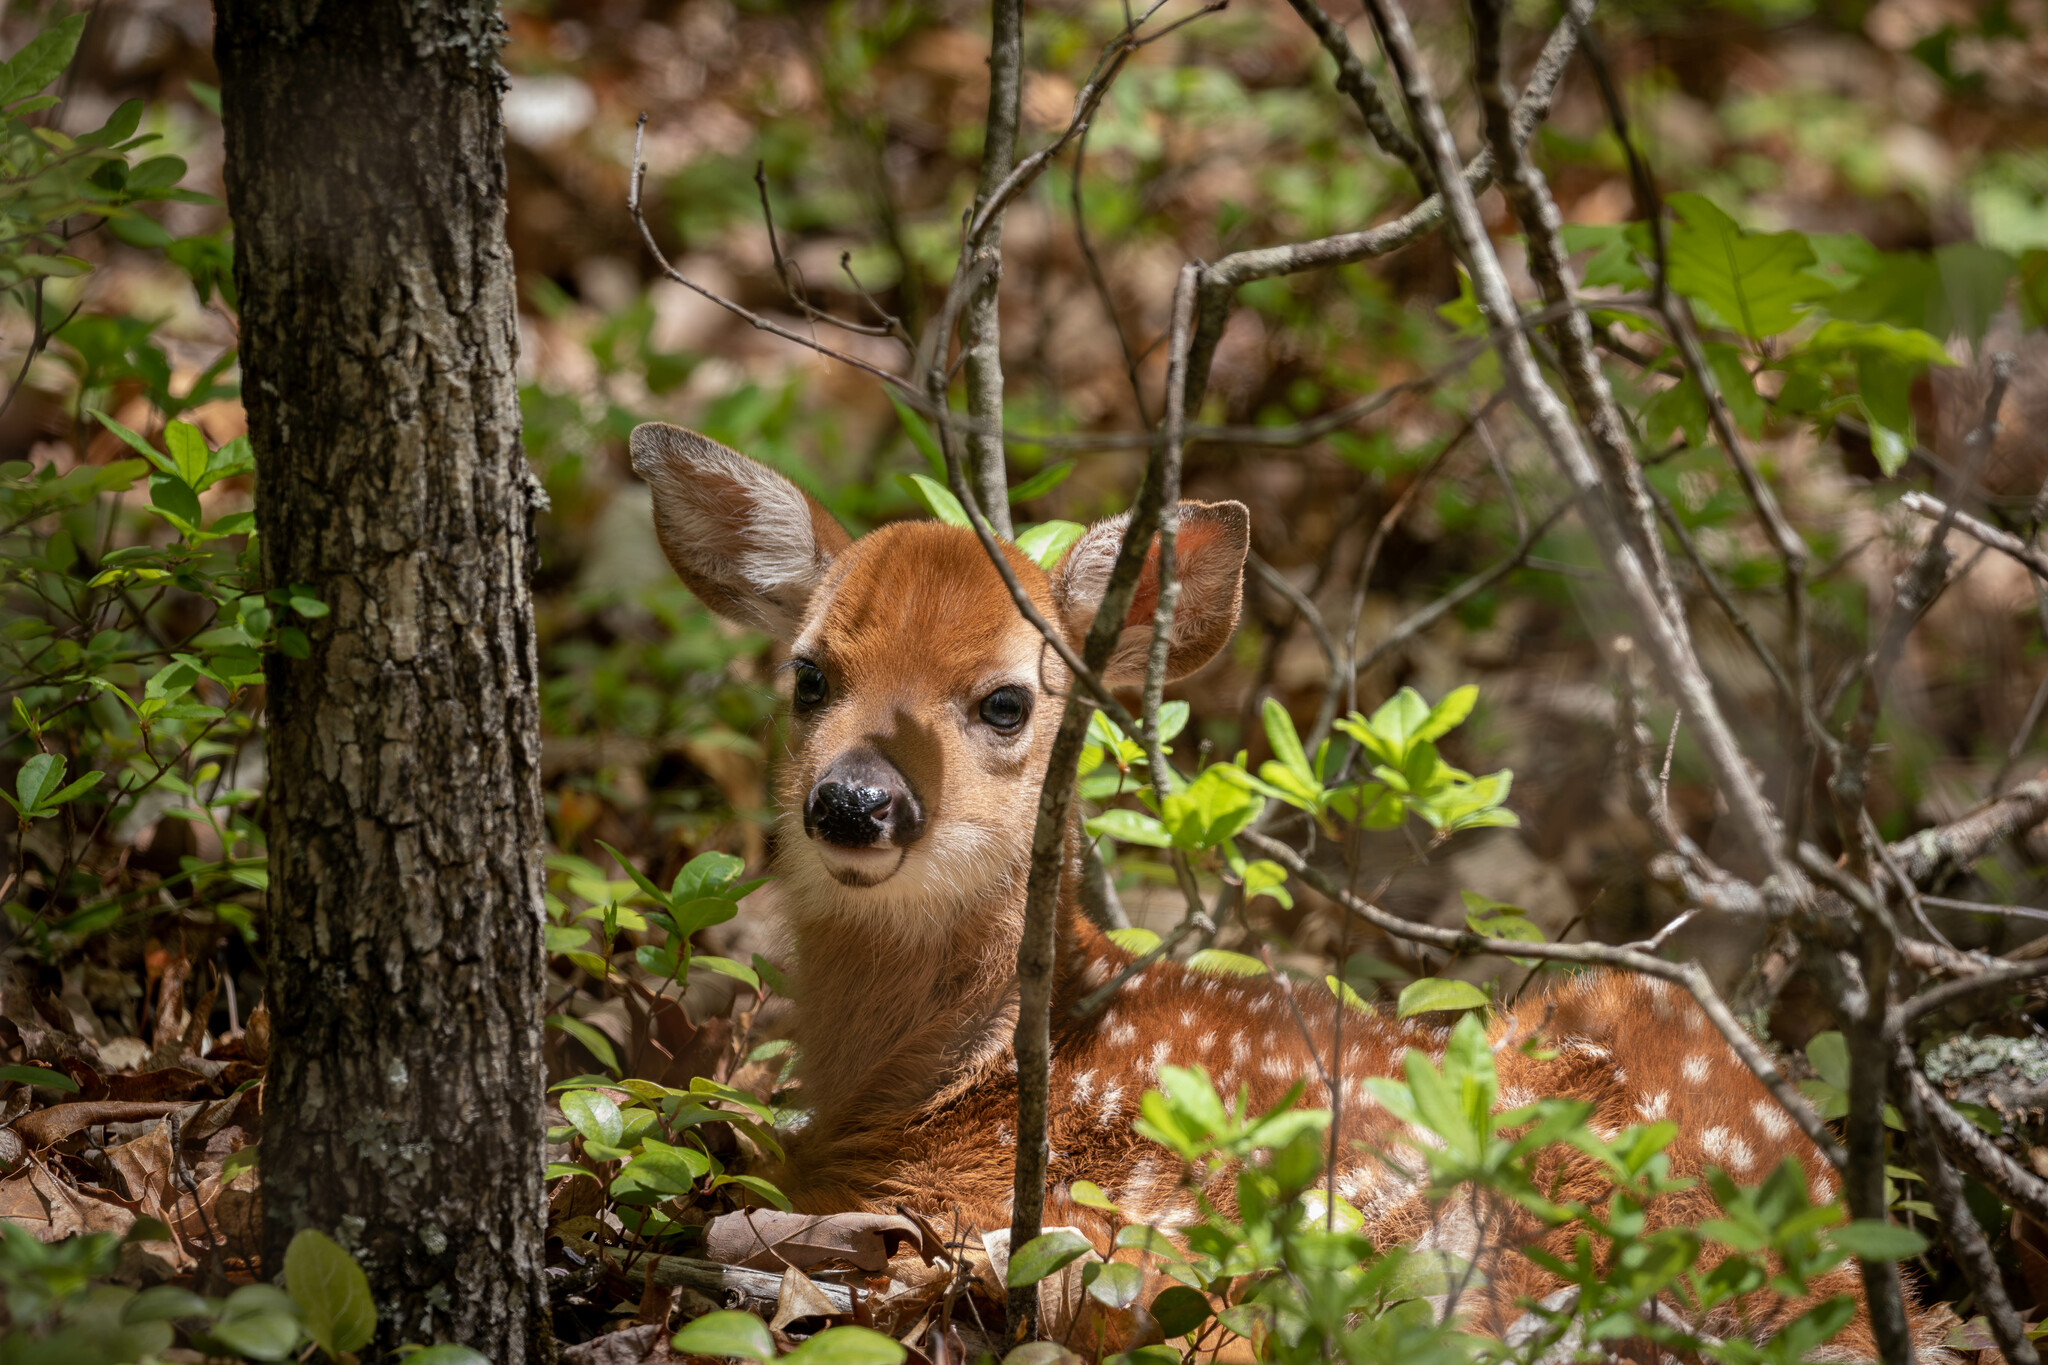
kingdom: Animalia
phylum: Chordata
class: Mammalia
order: Artiodactyla
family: Cervidae
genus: Odocoileus
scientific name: Odocoileus virginianus
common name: White-tailed deer
